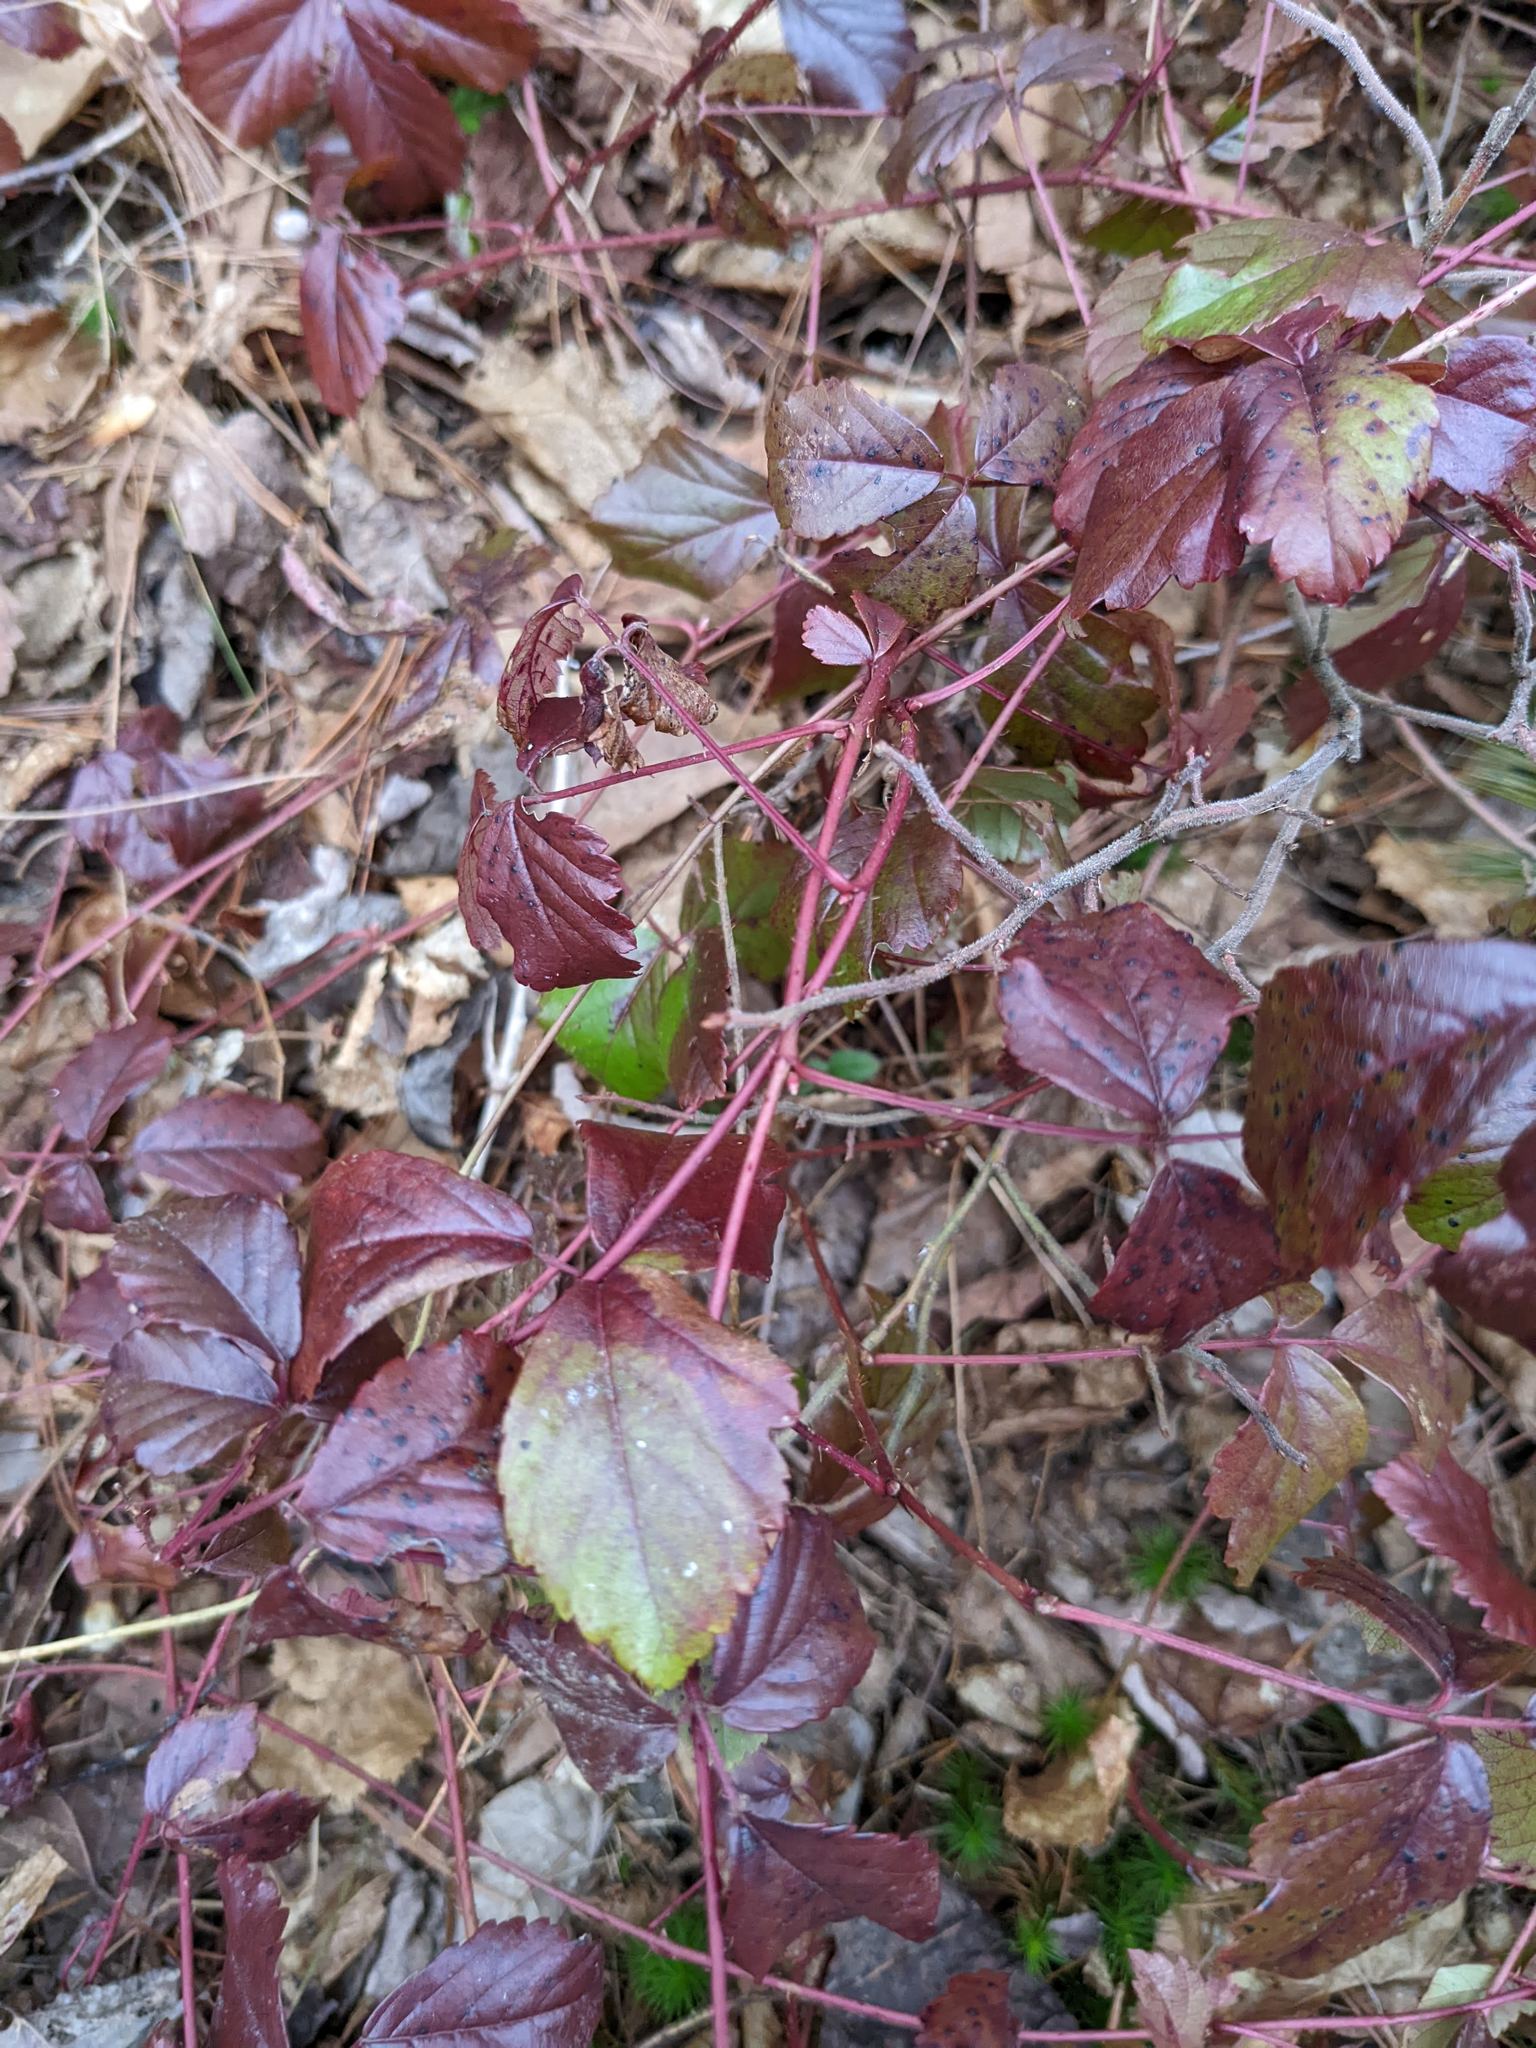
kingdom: Plantae
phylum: Tracheophyta
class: Magnoliopsida
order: Rosales
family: Rosaceae
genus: Rubus
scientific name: Rubus hispidus
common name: Running blackberry
